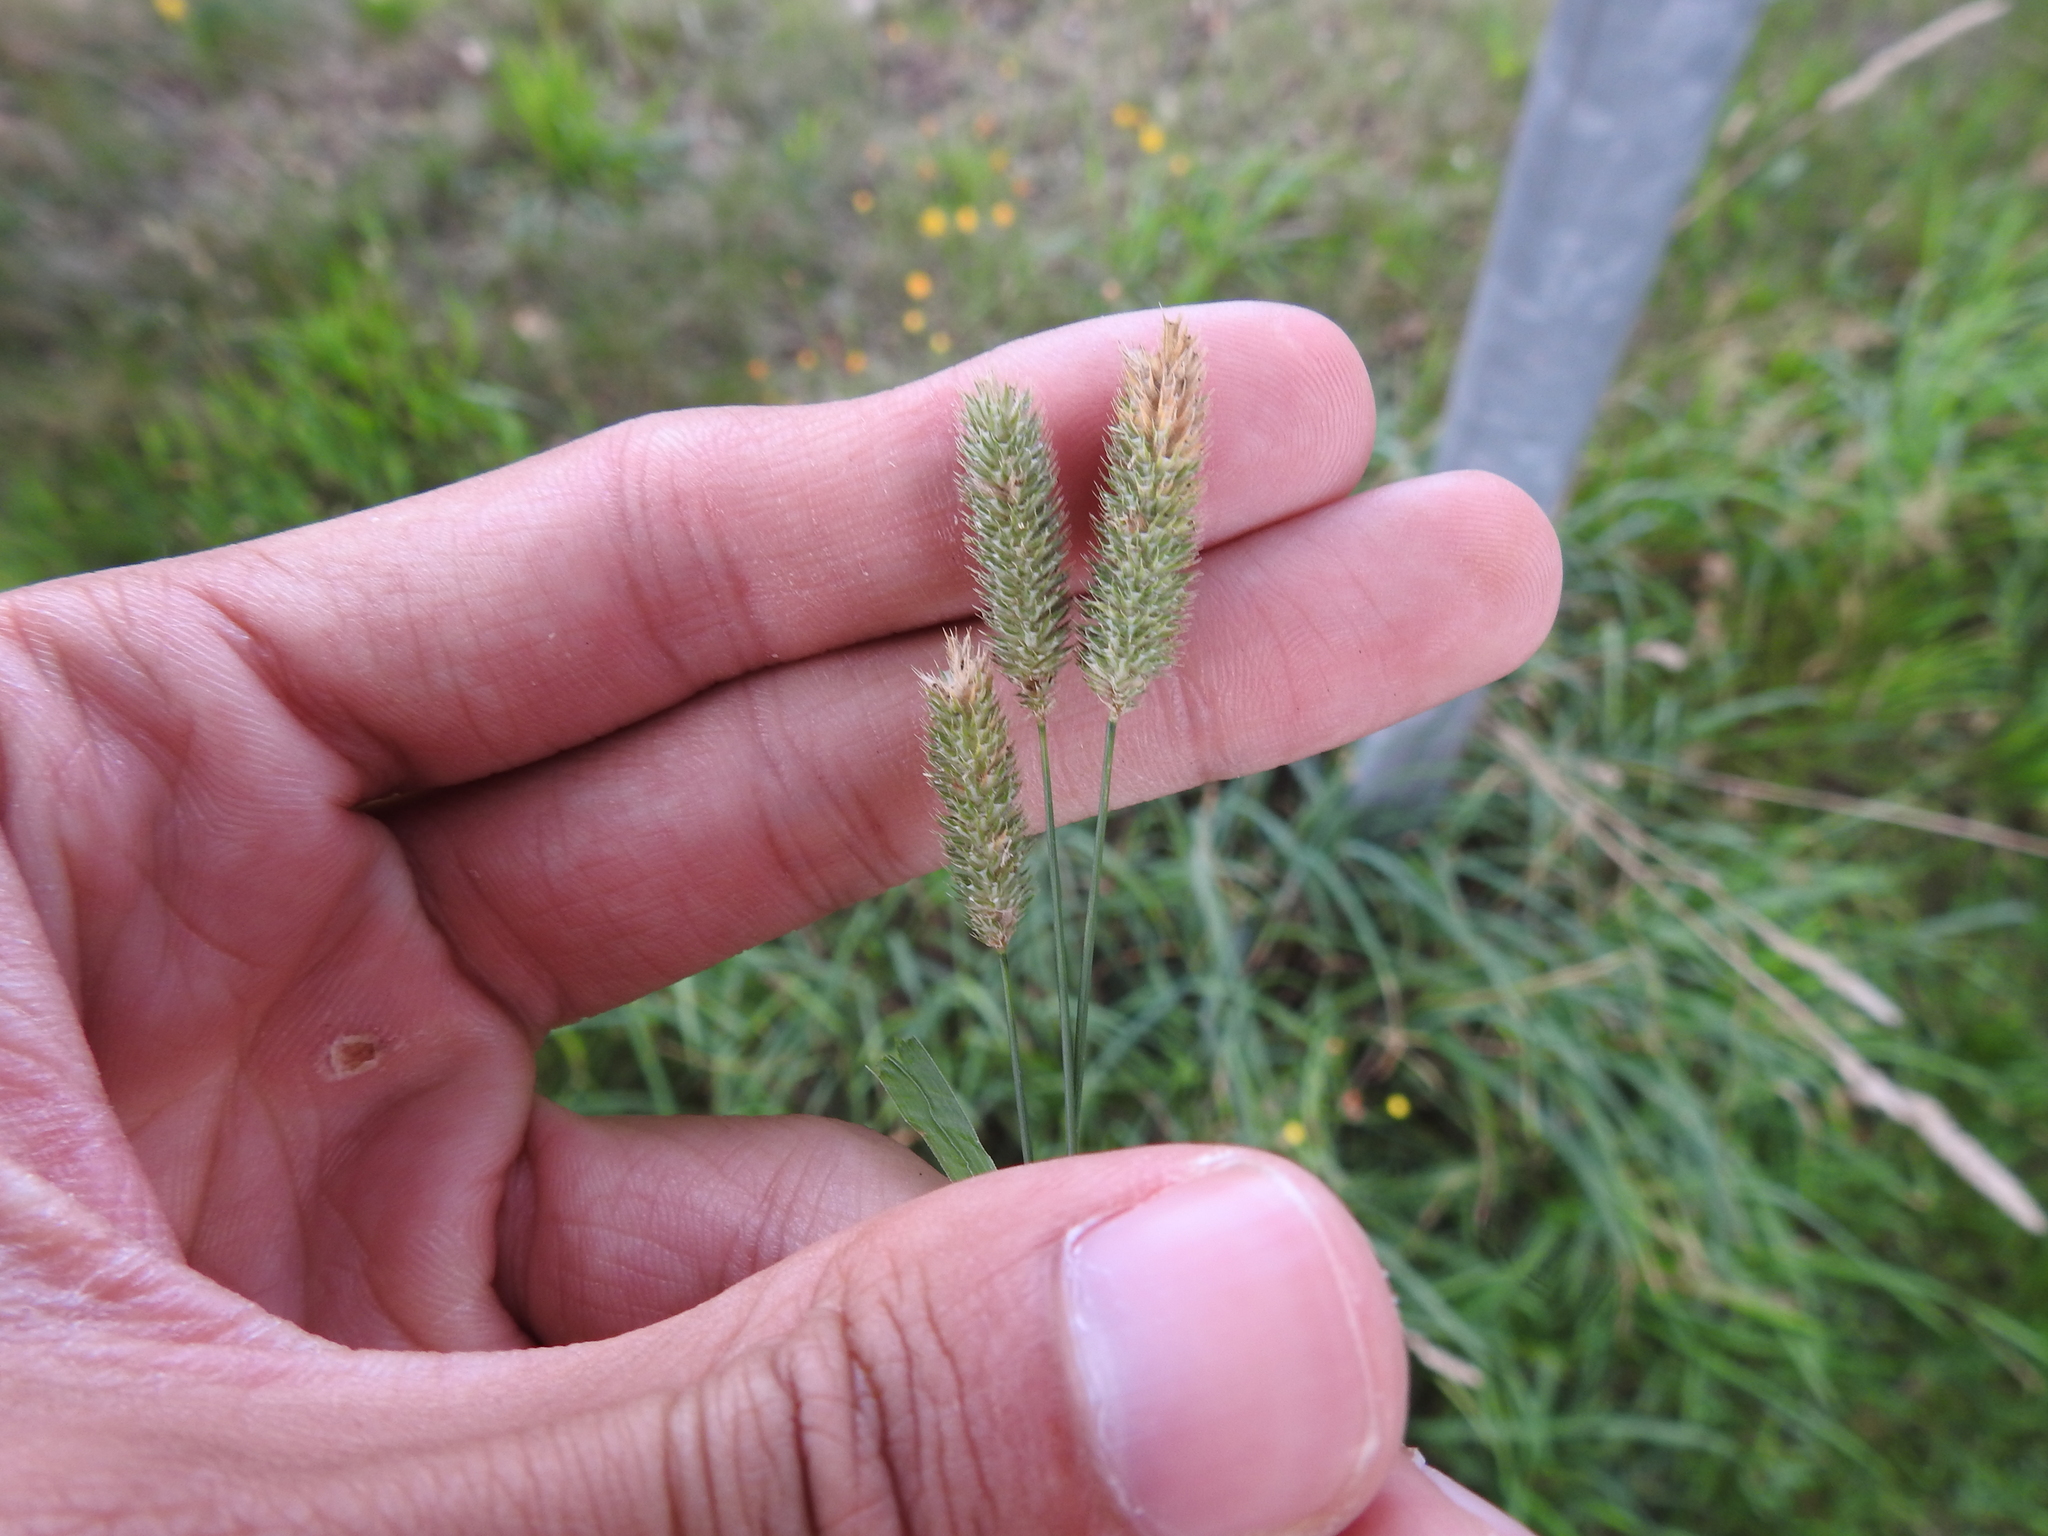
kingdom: Plantae
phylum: Tracheophyta
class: Liliopsida
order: Poales
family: Poaceae
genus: Phleum
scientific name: Phleum pratense
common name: Timothy grass
